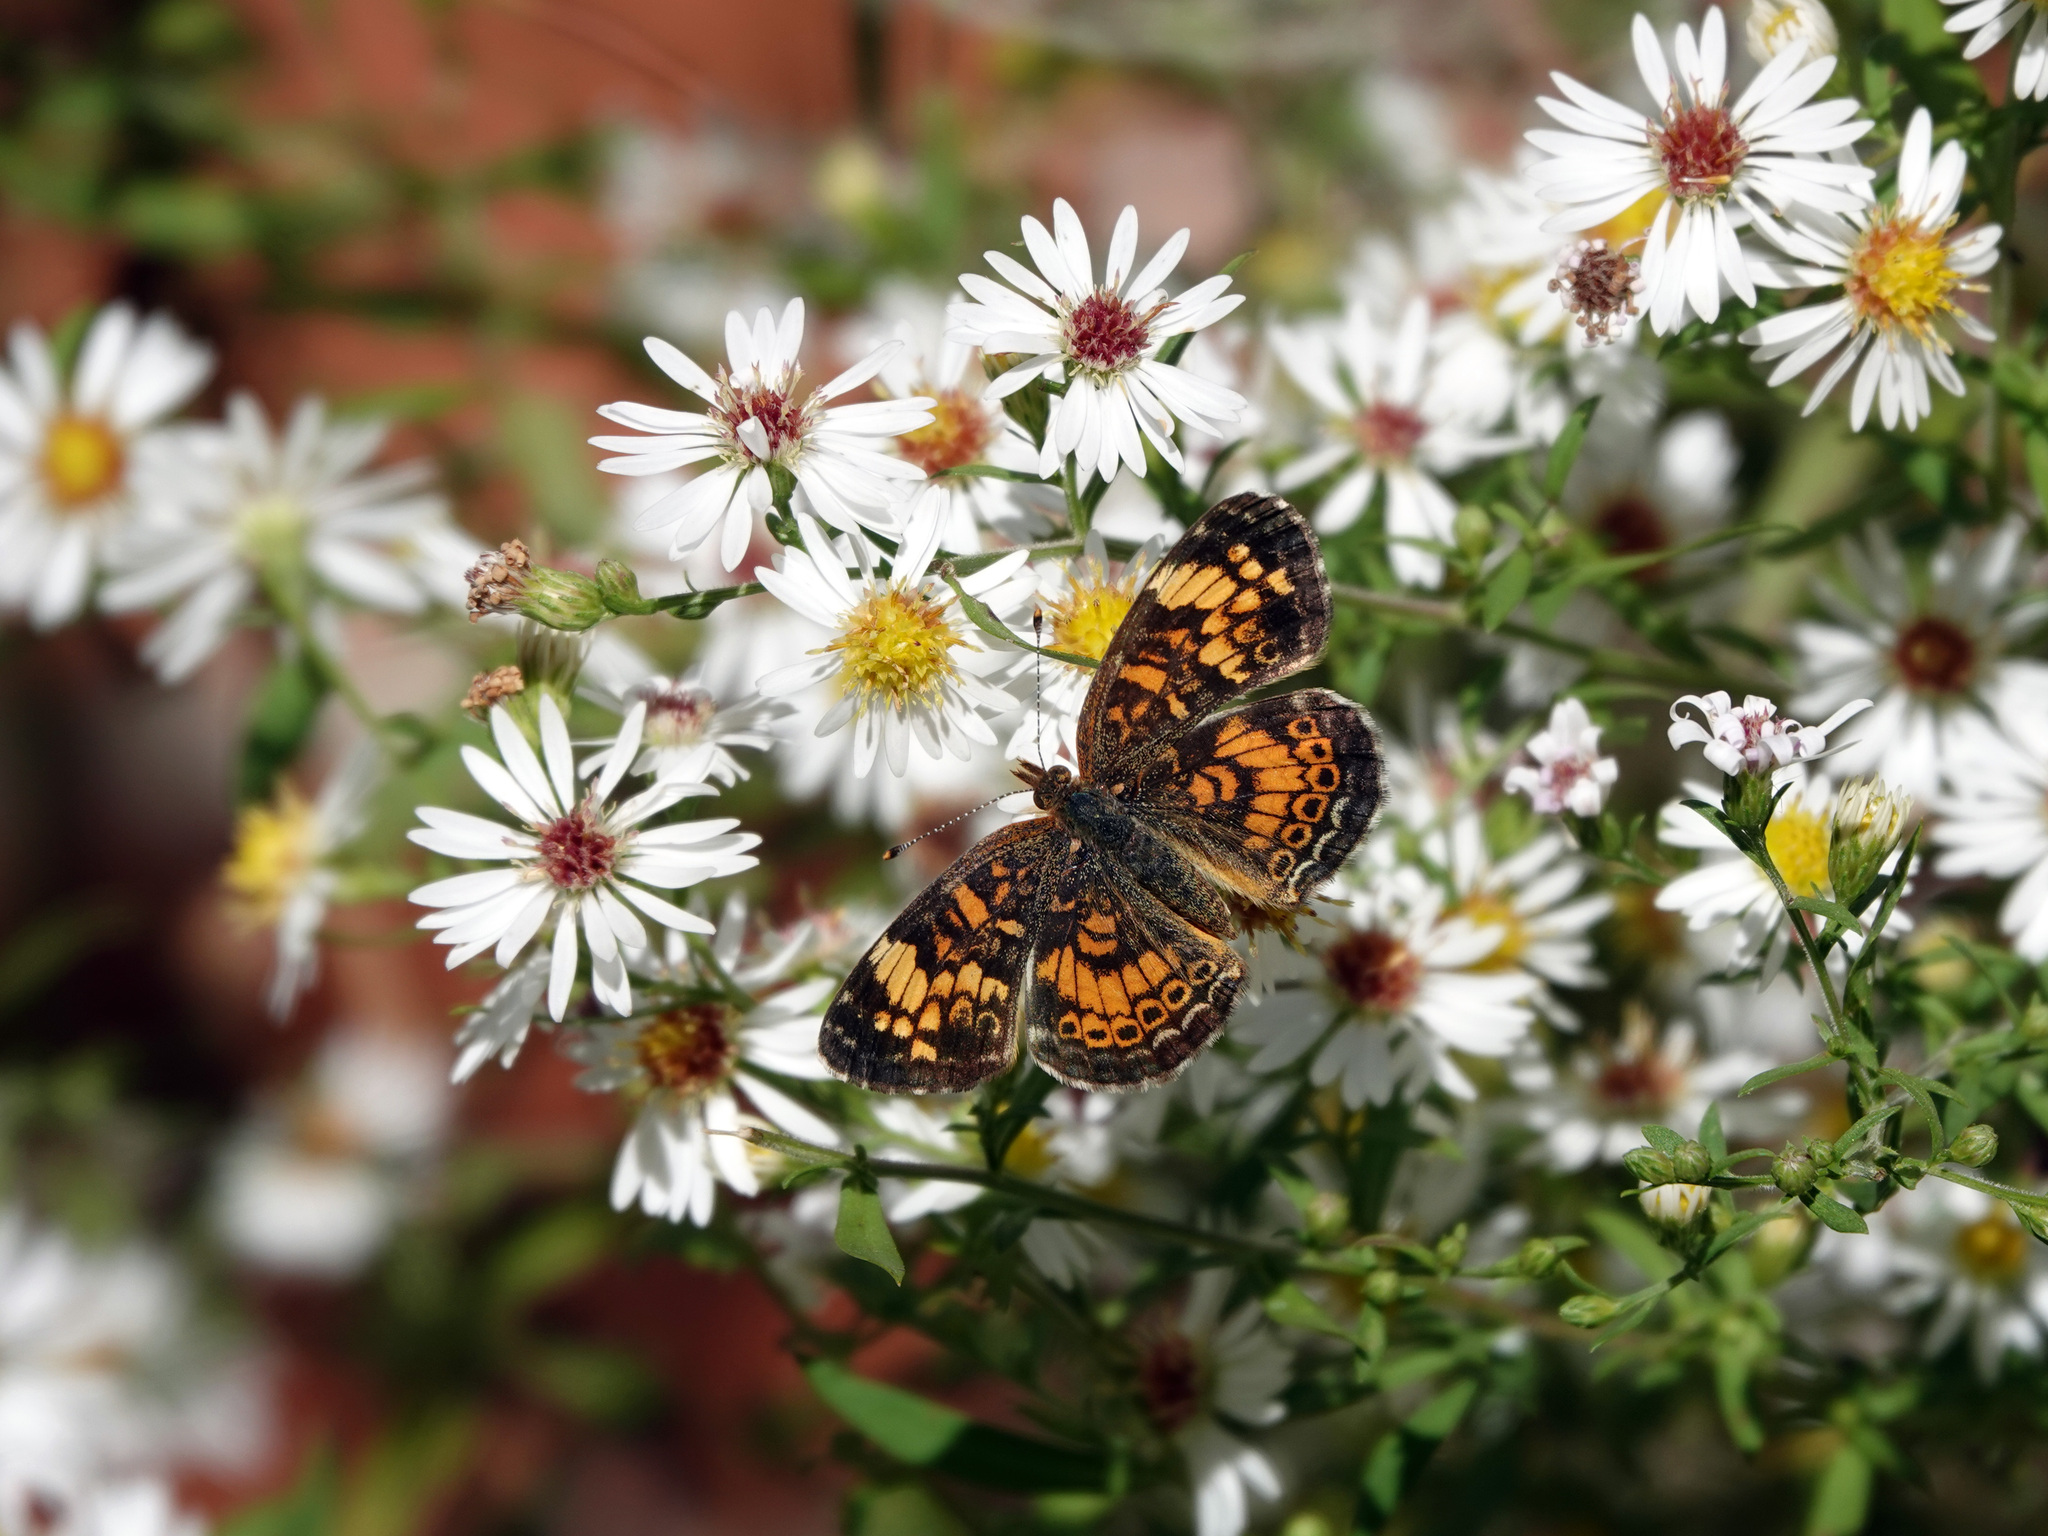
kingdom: Animalia
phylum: Arthropoda
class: Insecta
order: Lepidoptera
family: Nymphalidae
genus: Phyciodes
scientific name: Phyciodes tharos
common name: Pearl crescent
